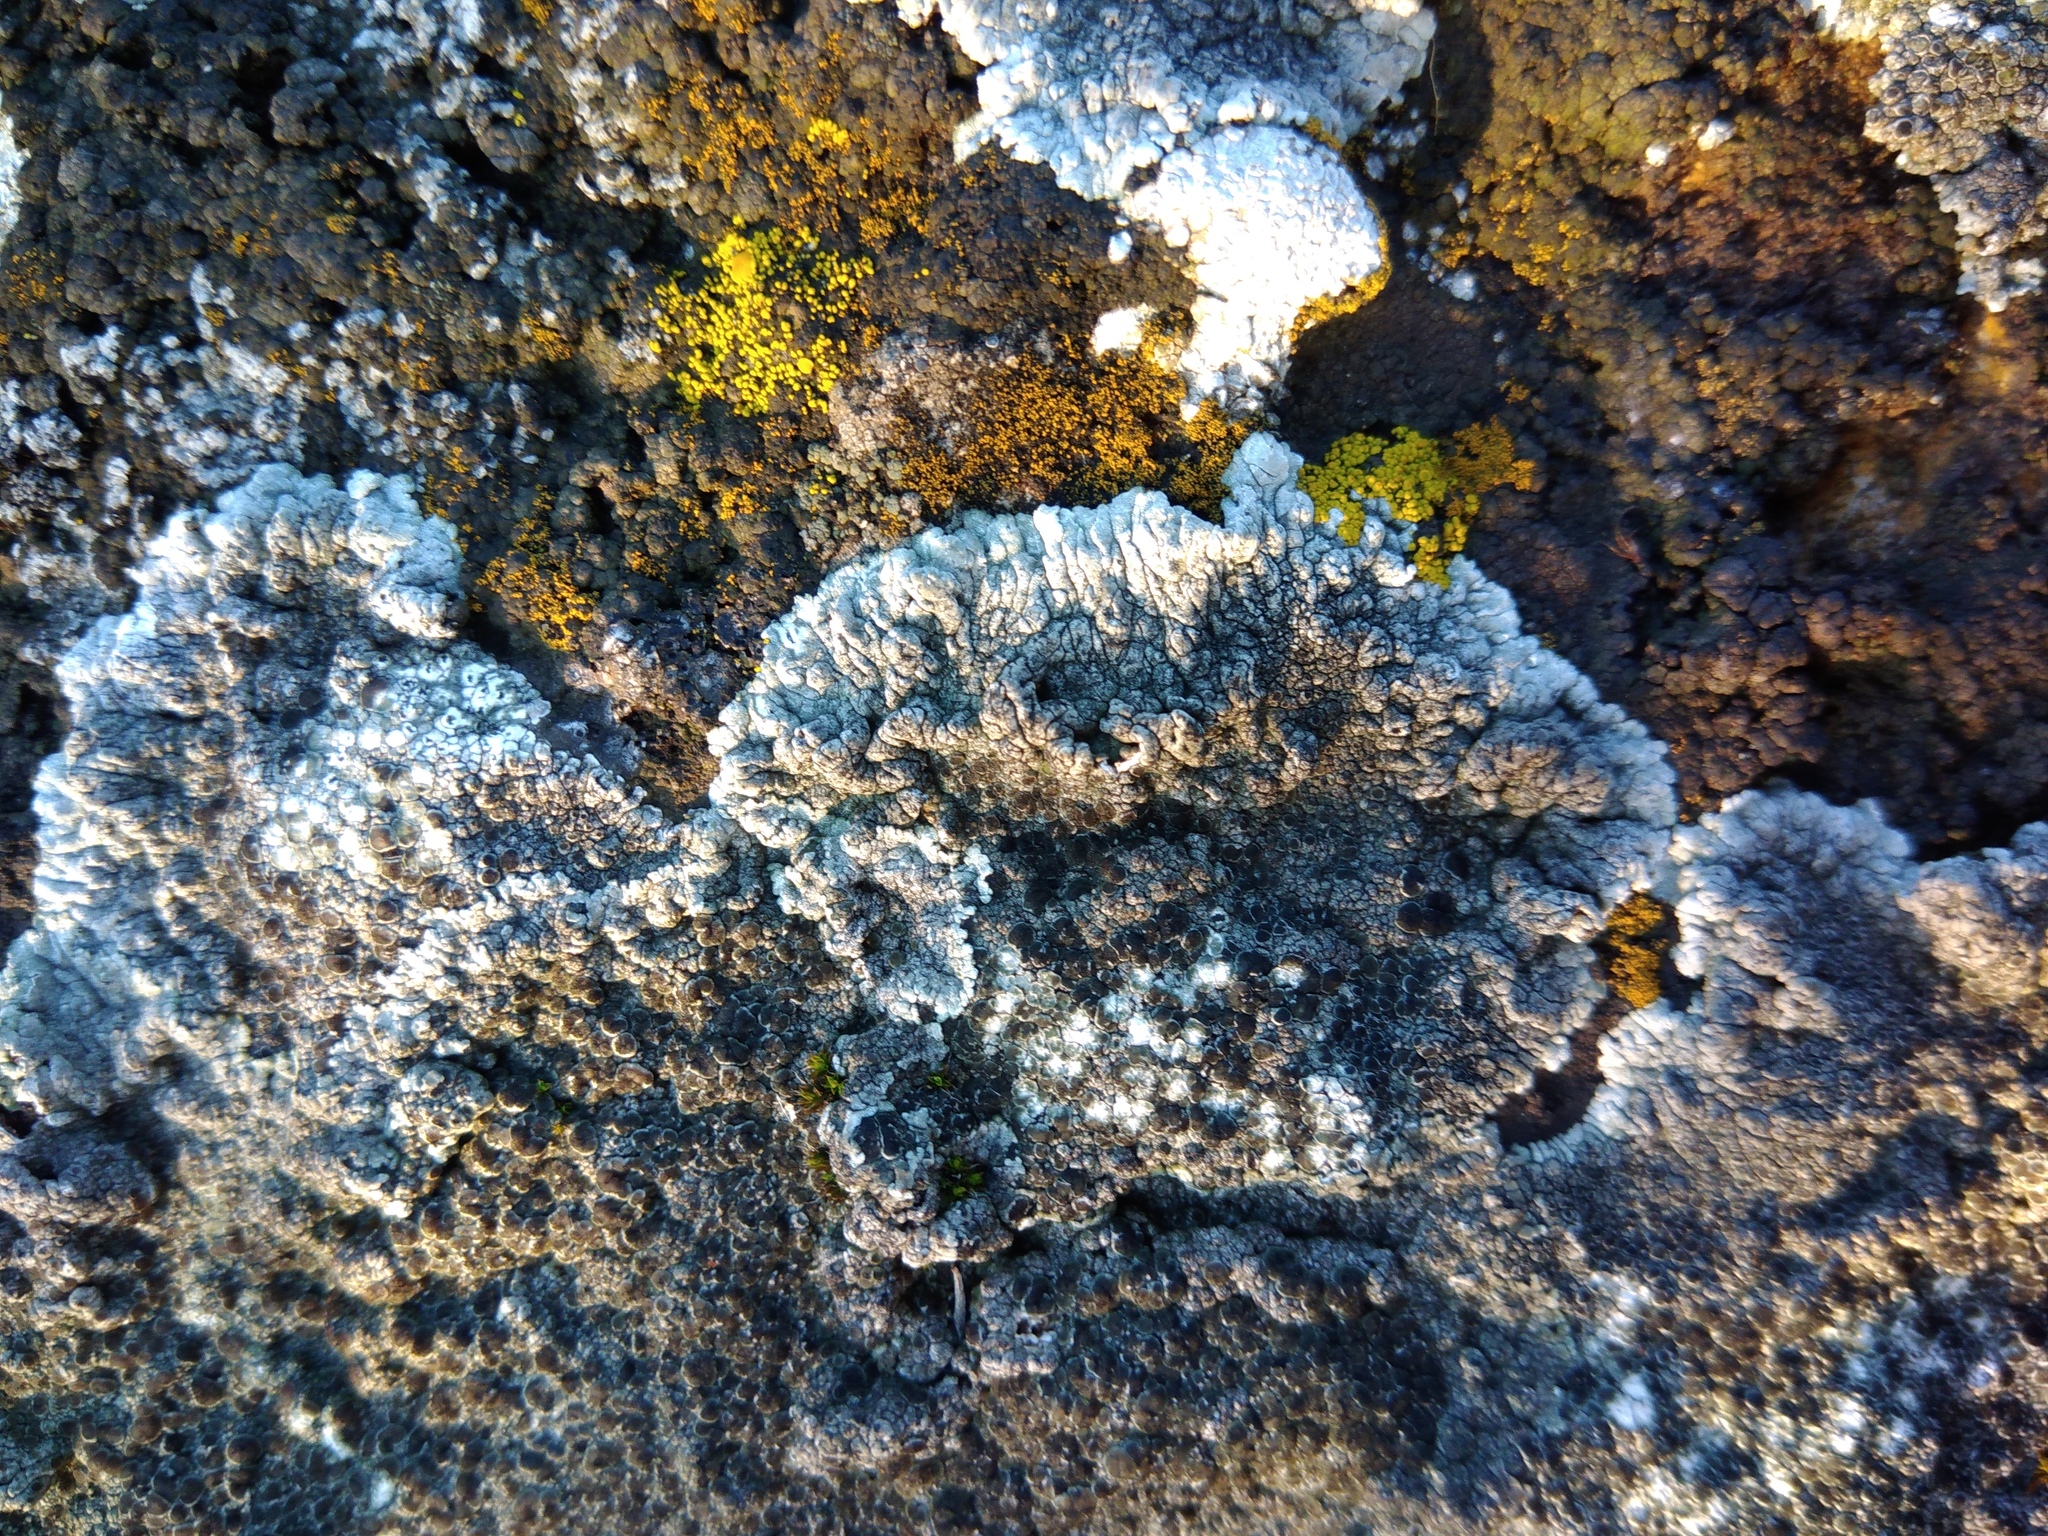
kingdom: Fungi
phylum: Ascomycota
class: Lecanoromycetes
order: Pertusariales
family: Megasporaceae
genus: Lobothallia
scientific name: Lobothallia radiosa
